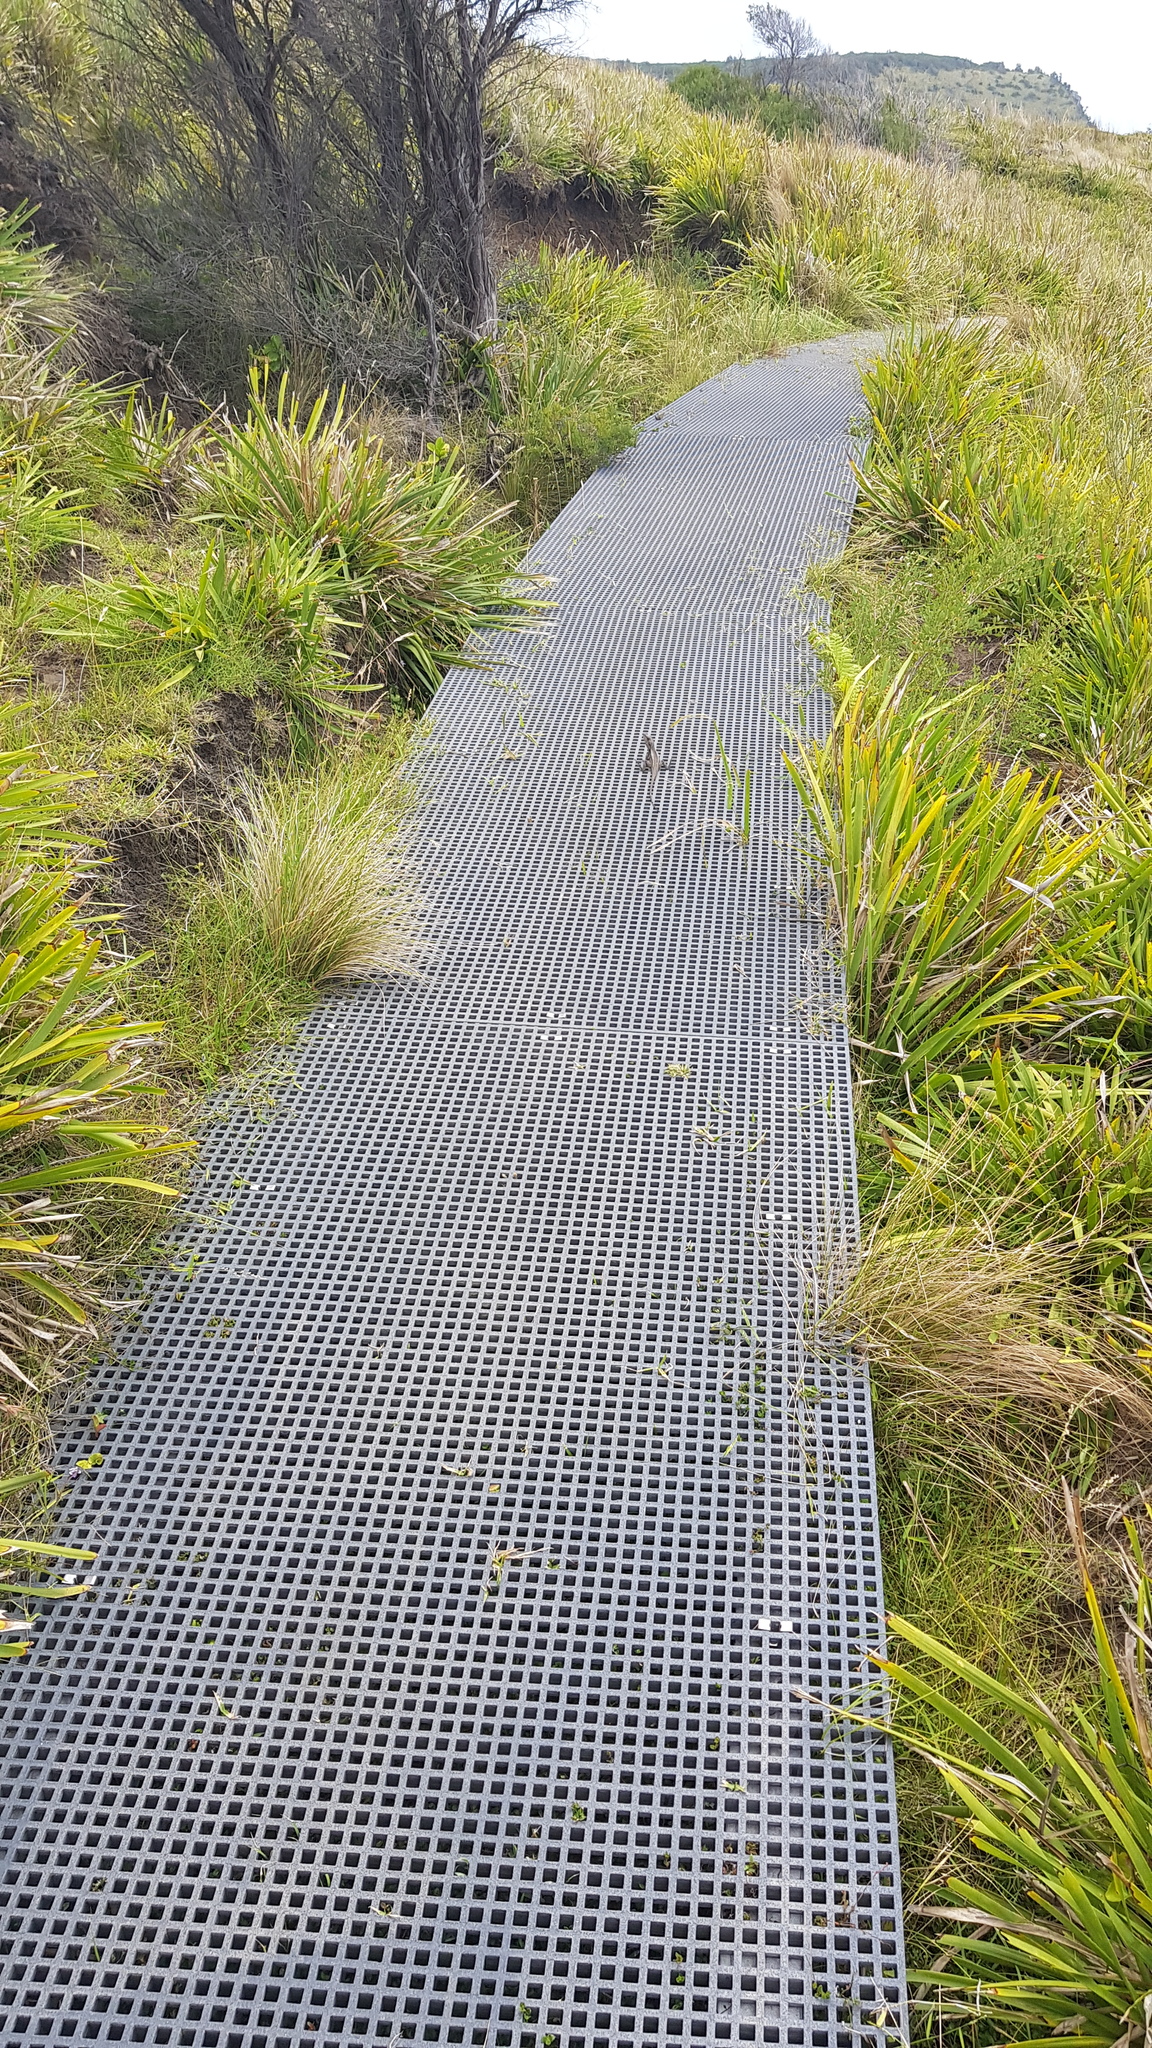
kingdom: Animalia
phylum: Chordata
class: Squamata
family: Agamidae
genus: Amphibolurus
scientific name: Amphibolurus muricatus
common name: Jacky lizard
